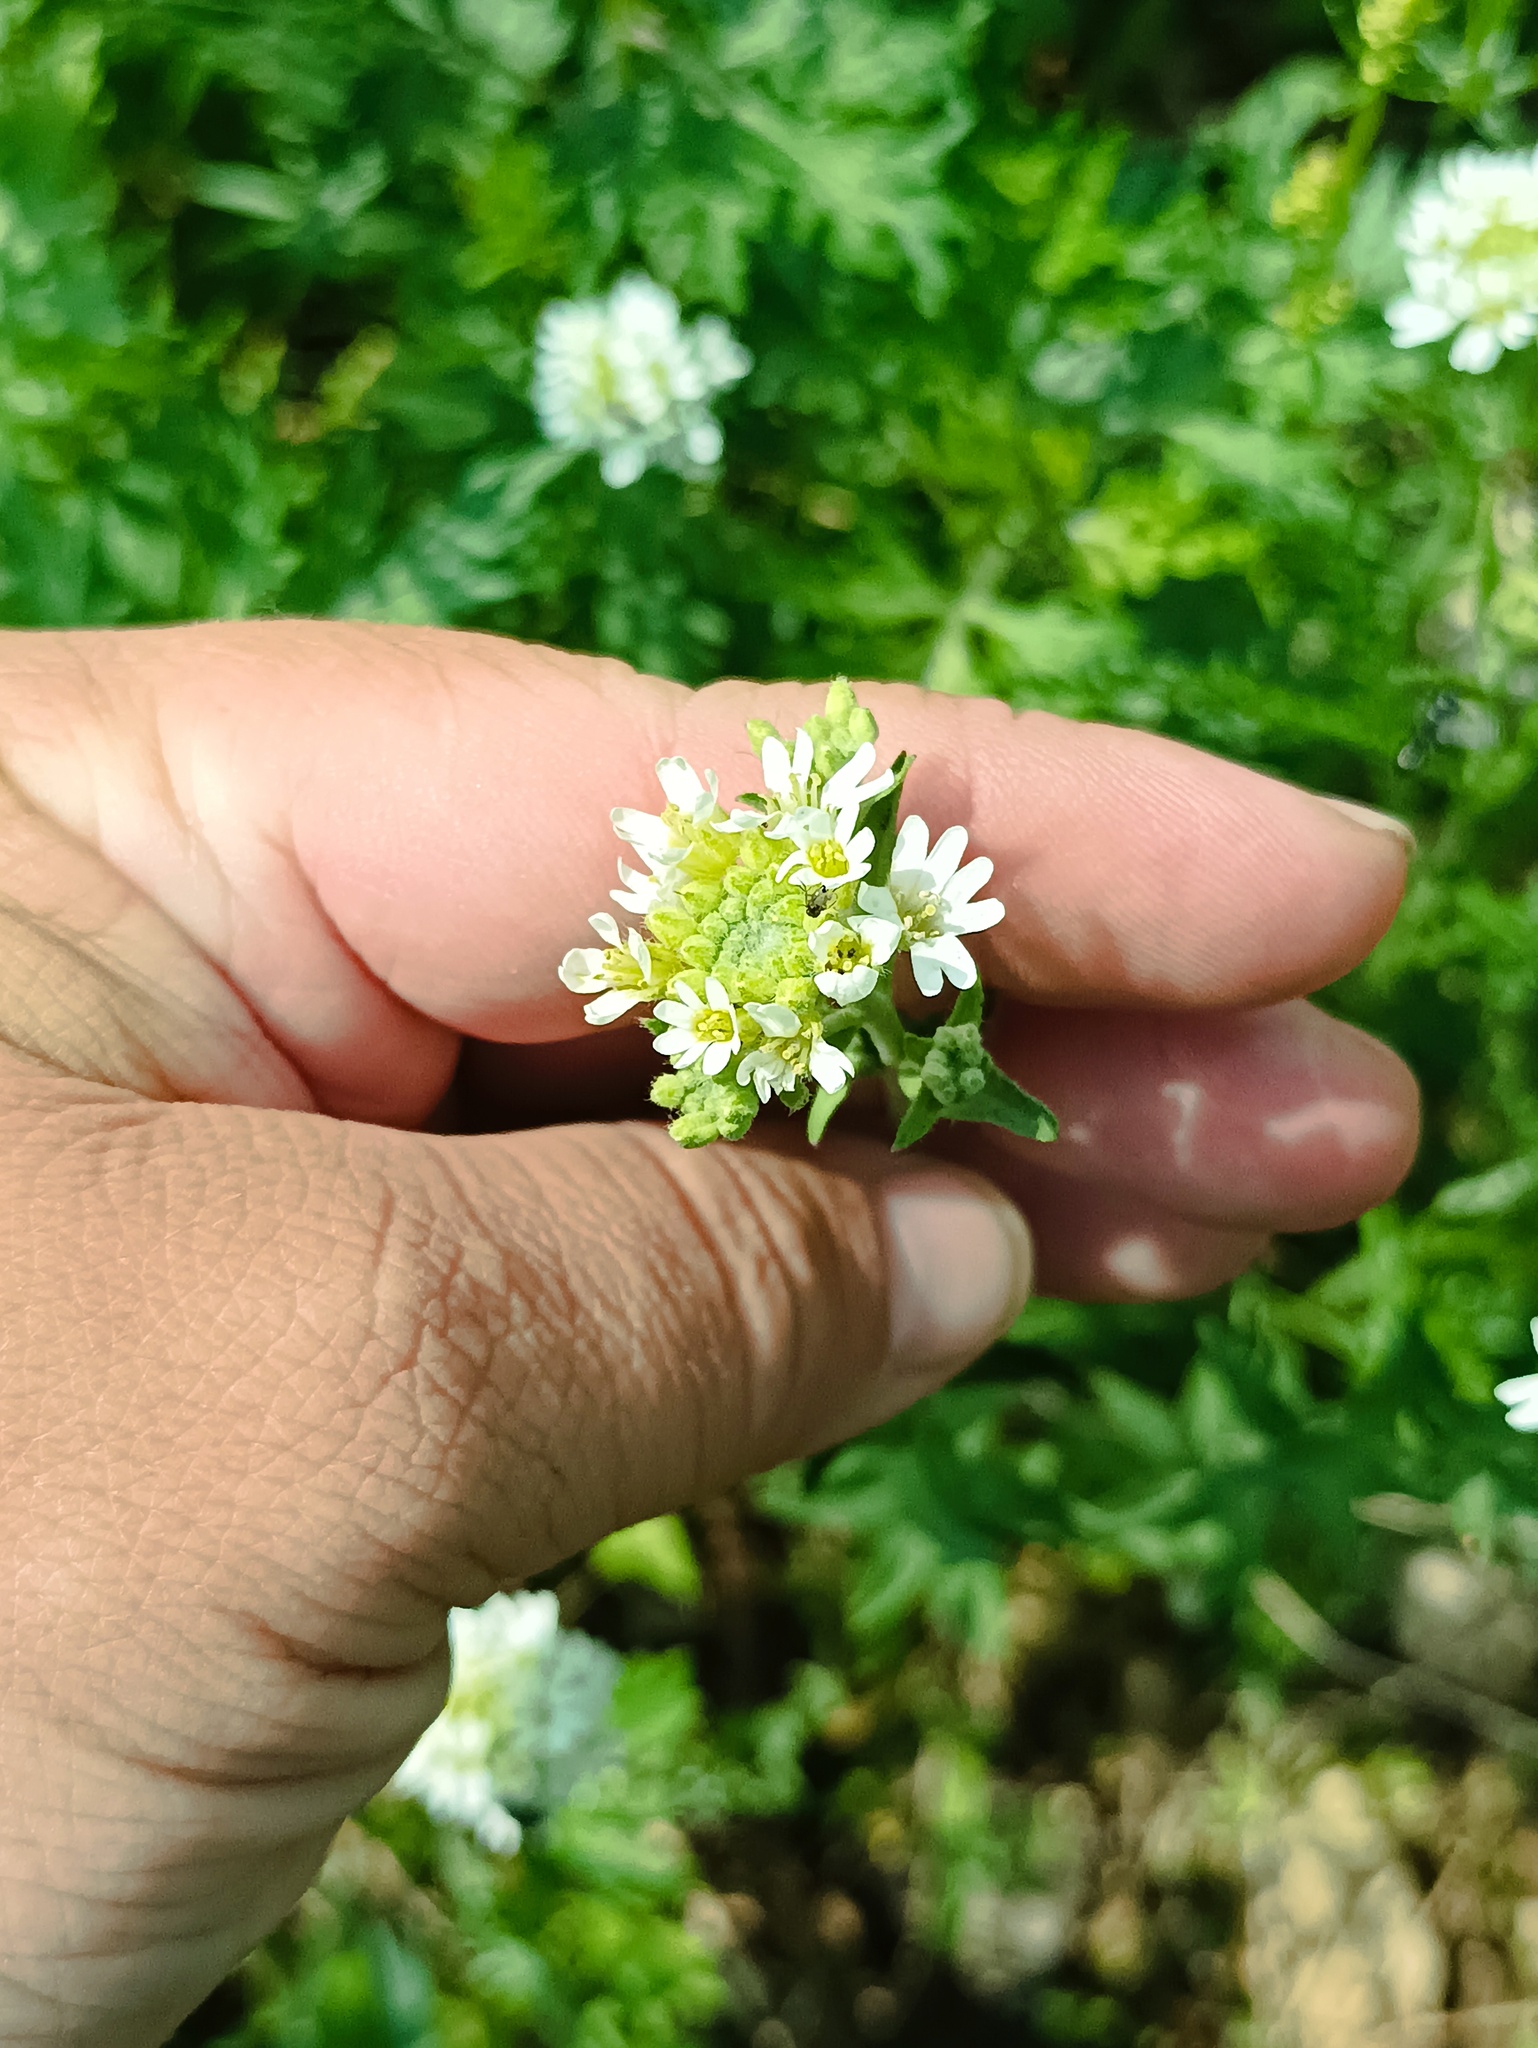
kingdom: Plantae
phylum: Tracheophyta
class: Magnoliopsida
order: Brassicales
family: Brassicaceae
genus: Berteroa
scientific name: Berteroa incana
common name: Hoary alison
